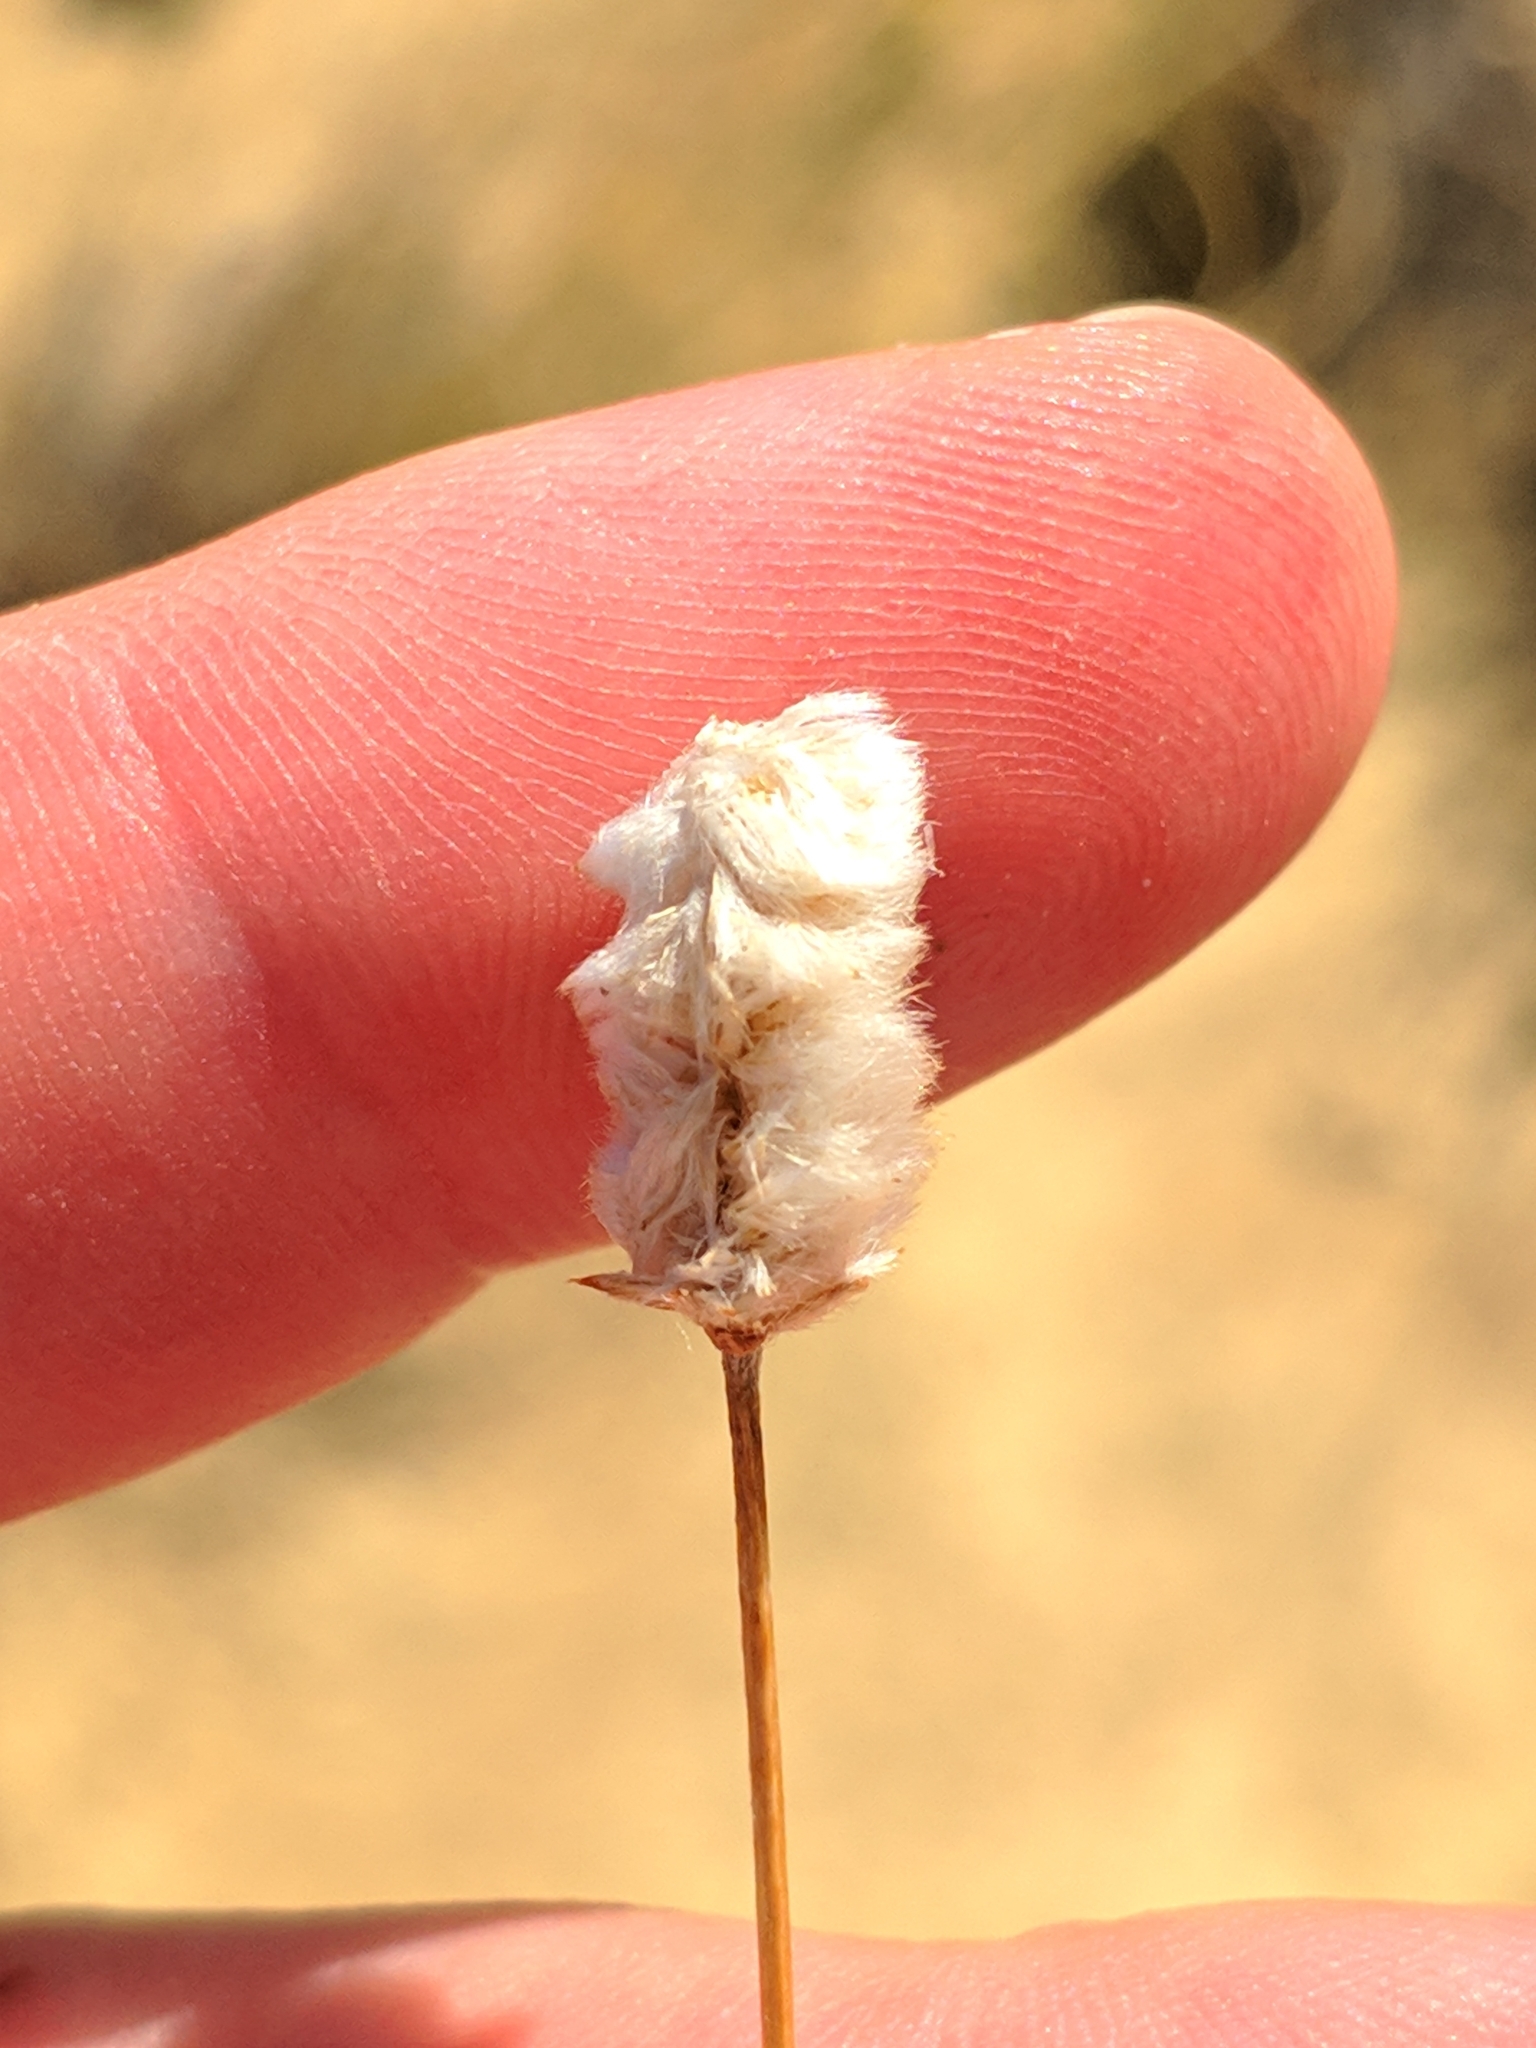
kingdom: Plantae
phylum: Tracheophyta
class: Magnoliopsida
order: Lamiales
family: Plantaginaceae
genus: Plantago
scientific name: Plantago lagopus
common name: Hare-foot plantain
